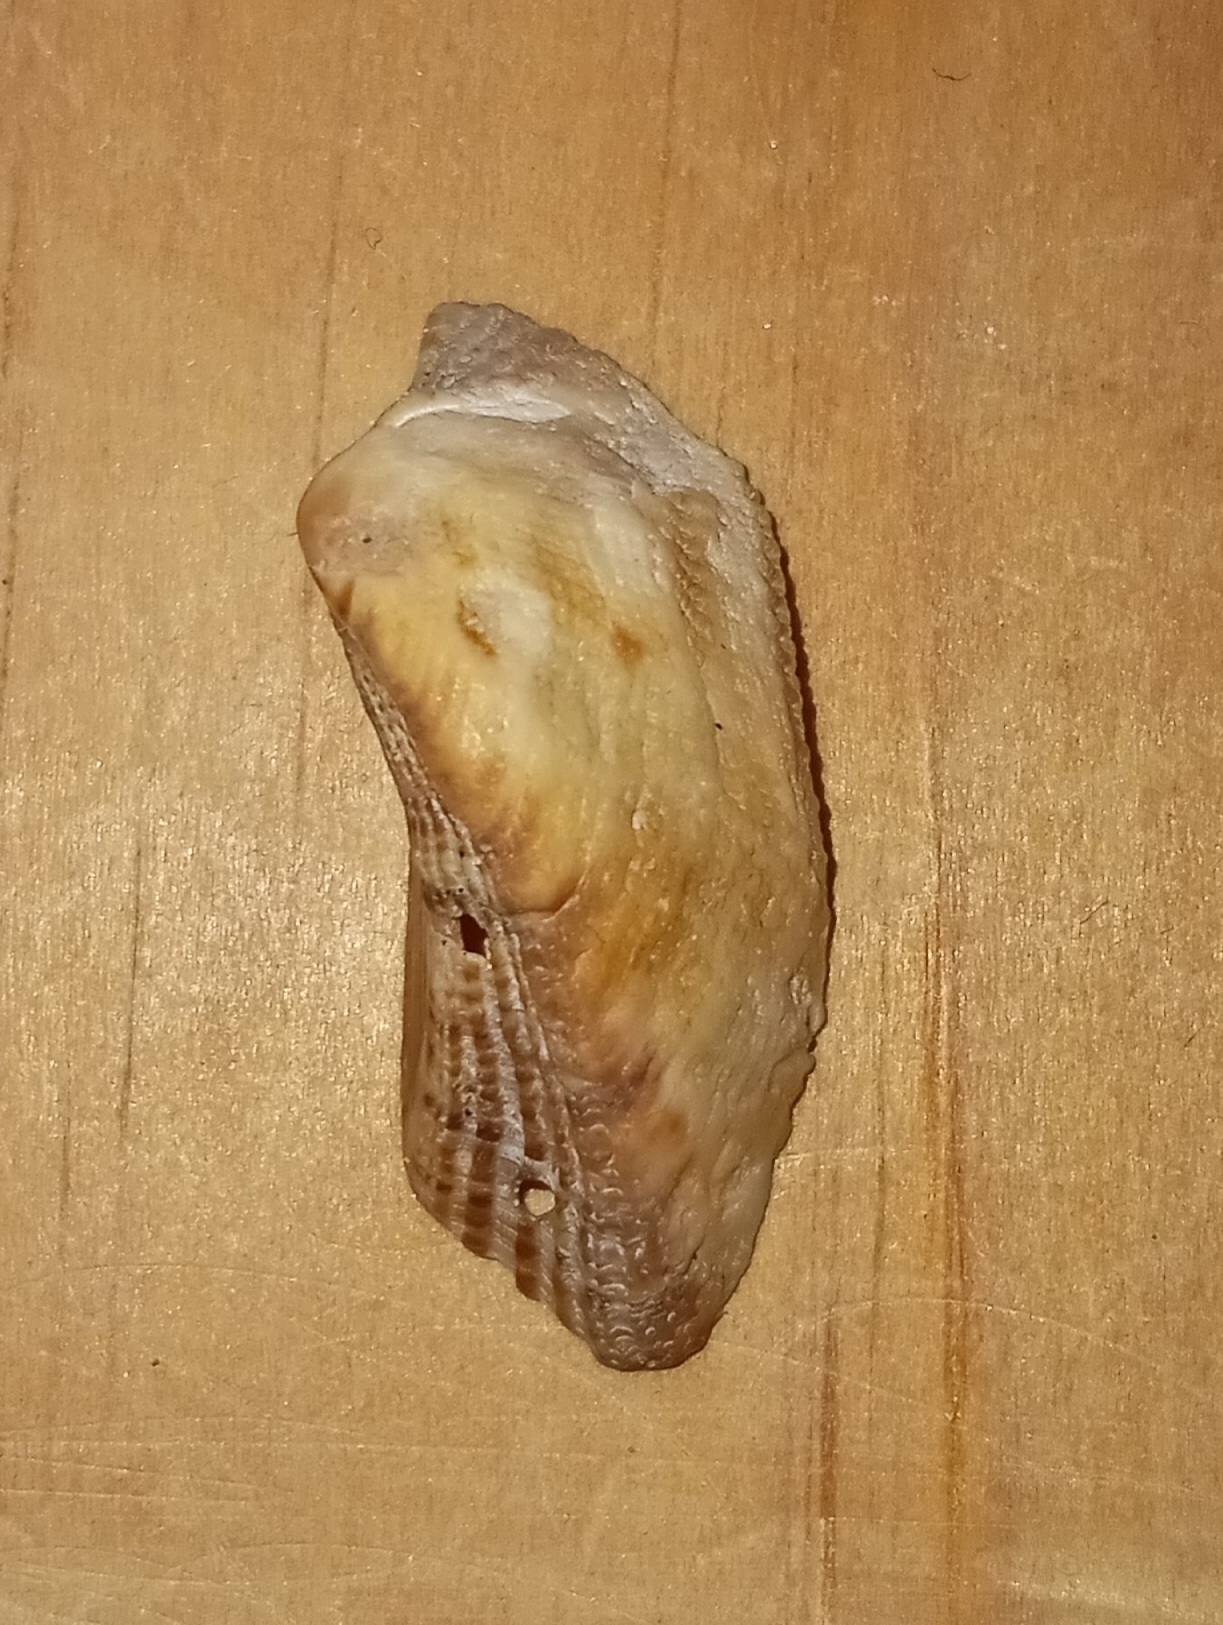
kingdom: Animalia
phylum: Mollusca
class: Bivalvia
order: Arcida
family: Arcidae
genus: Lamarcka
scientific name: Lamarcka imbricata
